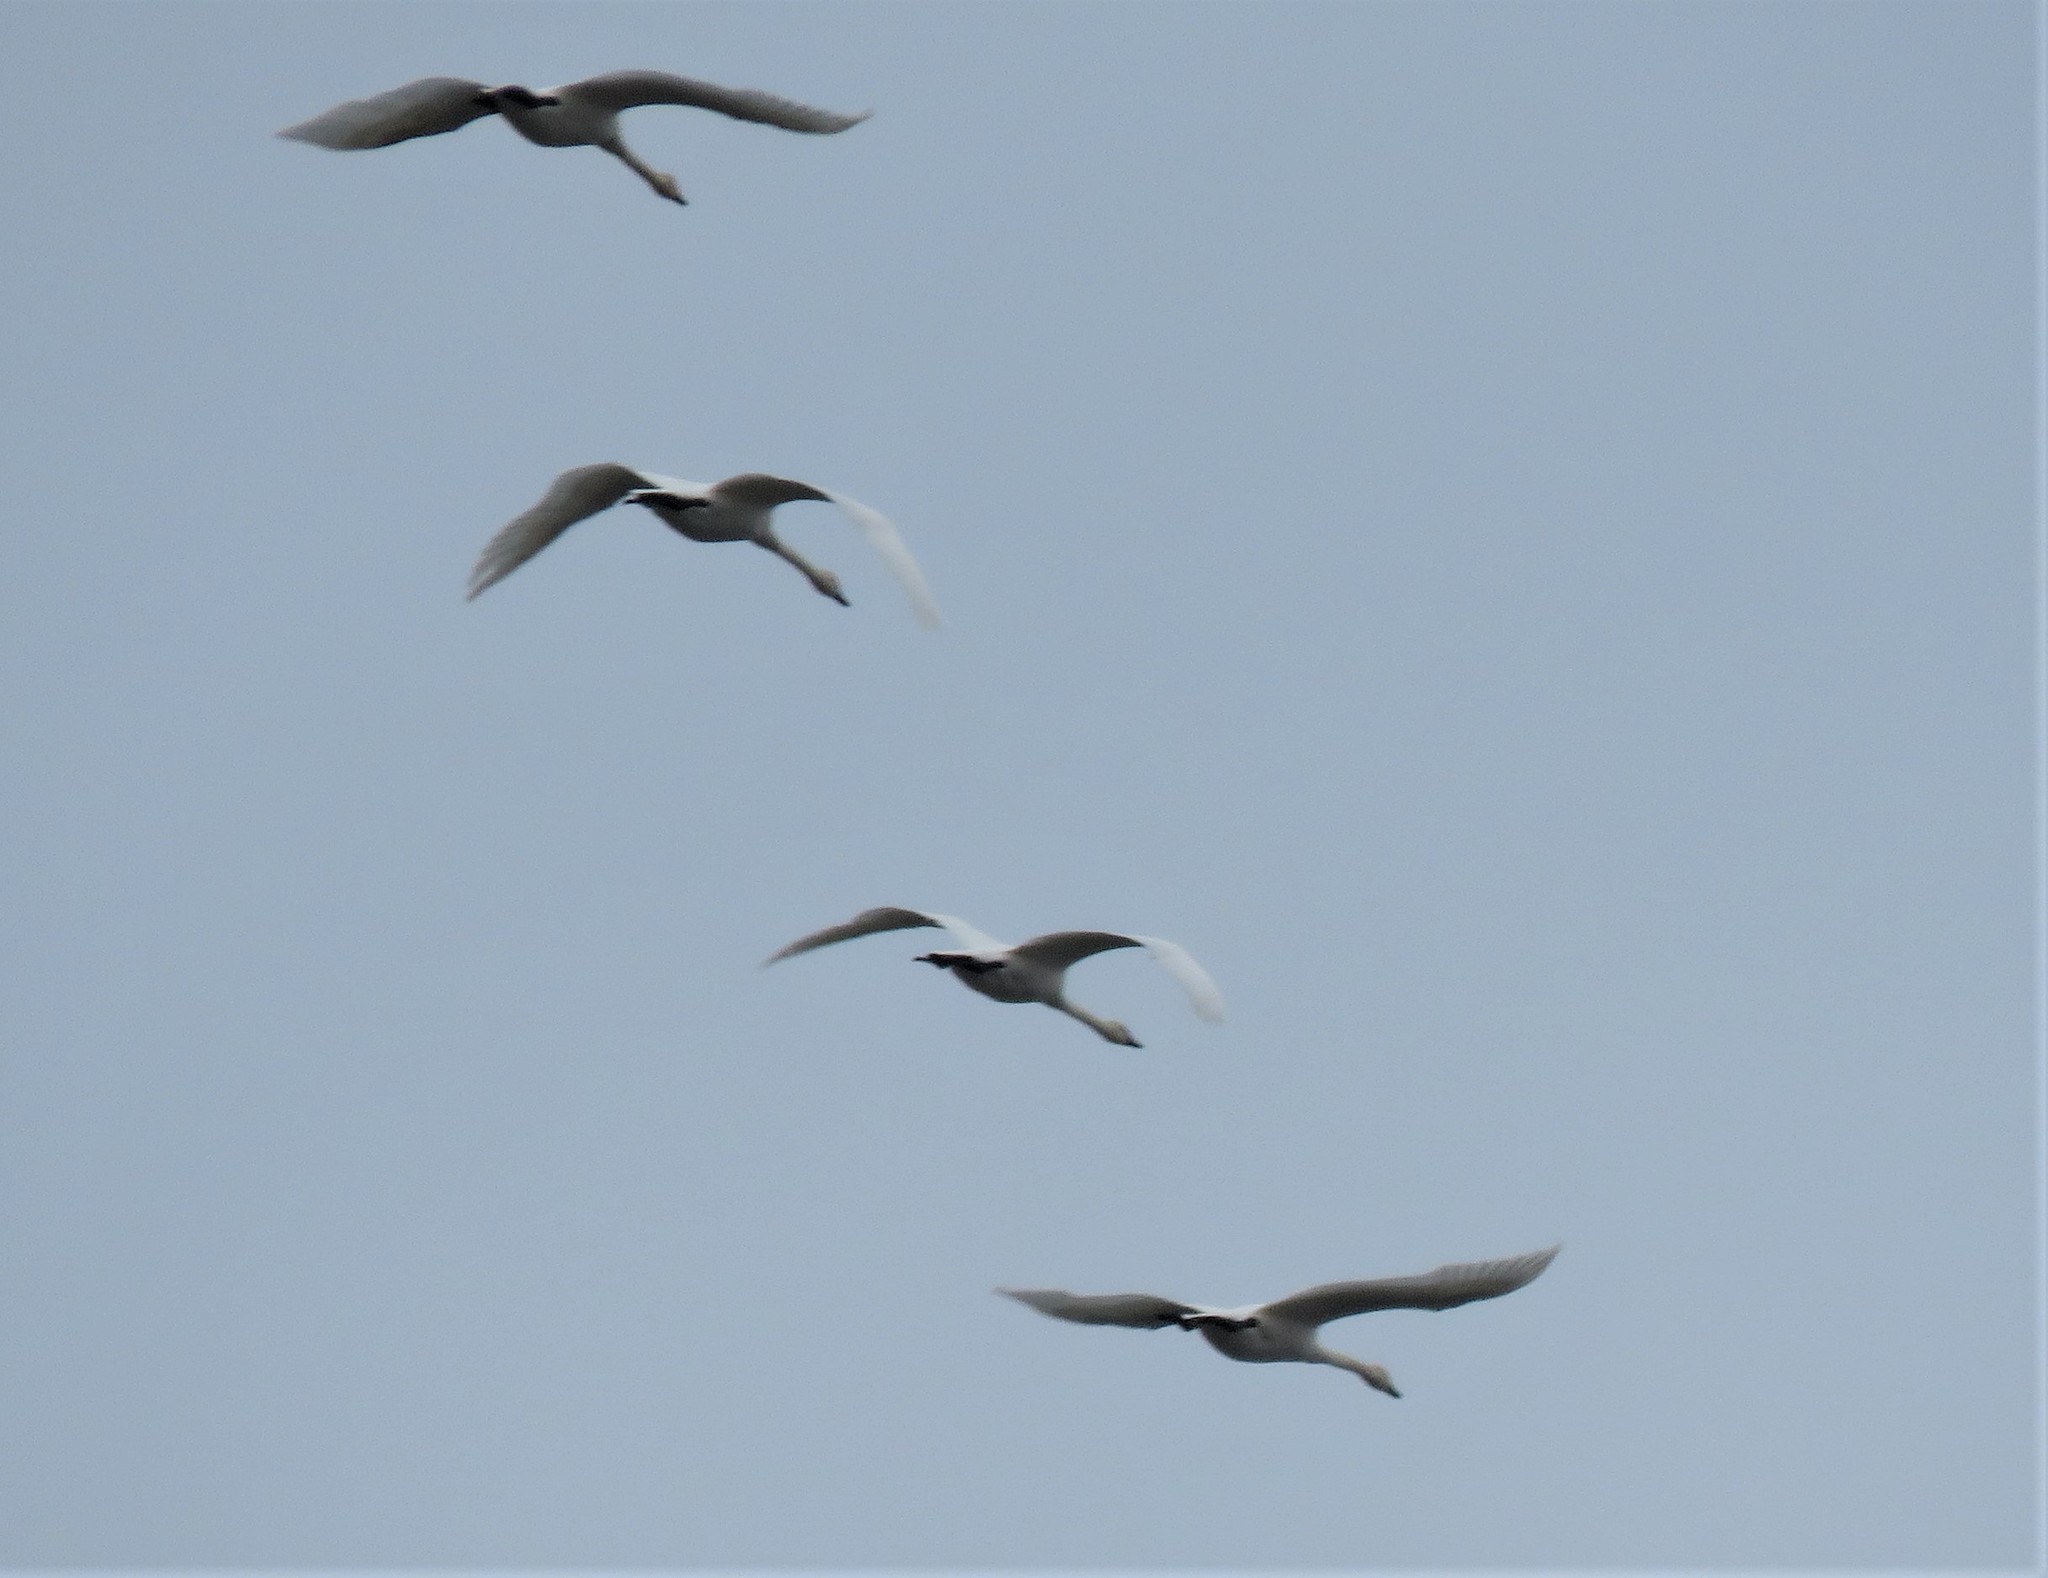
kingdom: Animalia
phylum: Chordata
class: Aves
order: Anseriformes
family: Anatidae
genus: Cygnus
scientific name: Cygnus buccinator
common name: Trumpeter swan
